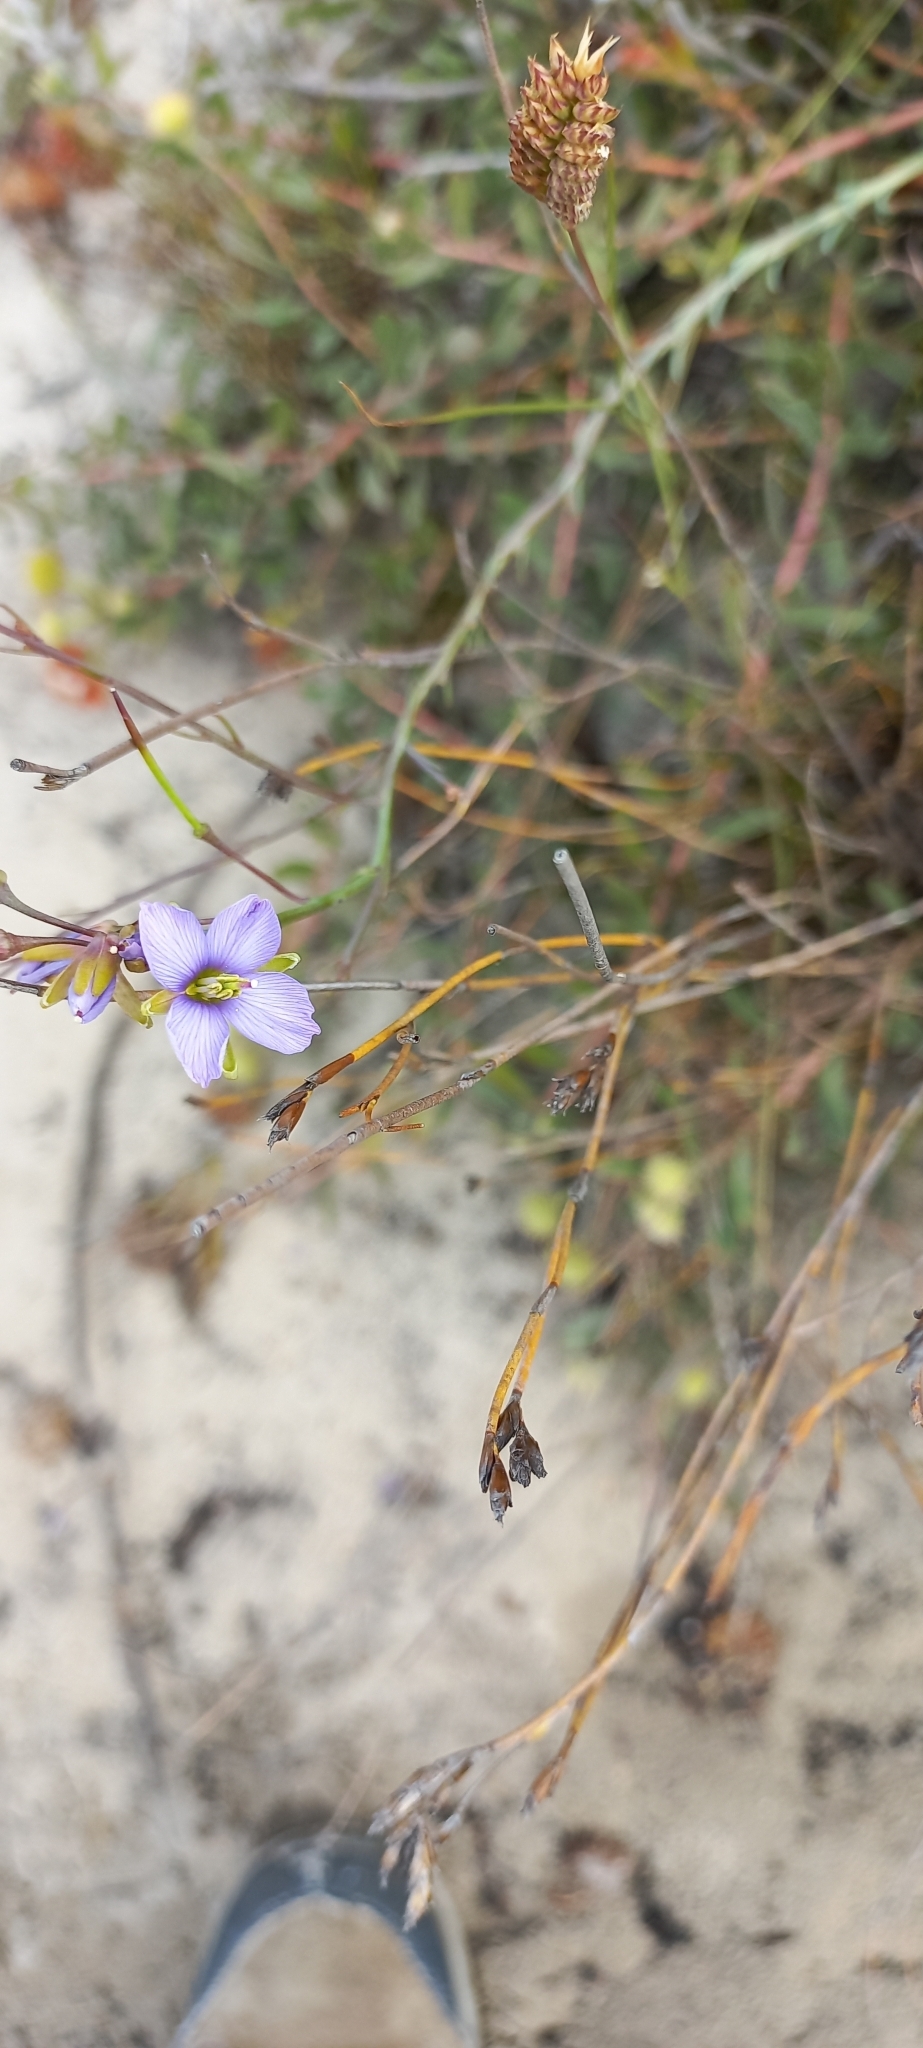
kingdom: Plantae
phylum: Tracheophyta
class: Magnoliopsida
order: Brassicales
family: Brassicaceae
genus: Heliophila
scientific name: Heliophila linearis
